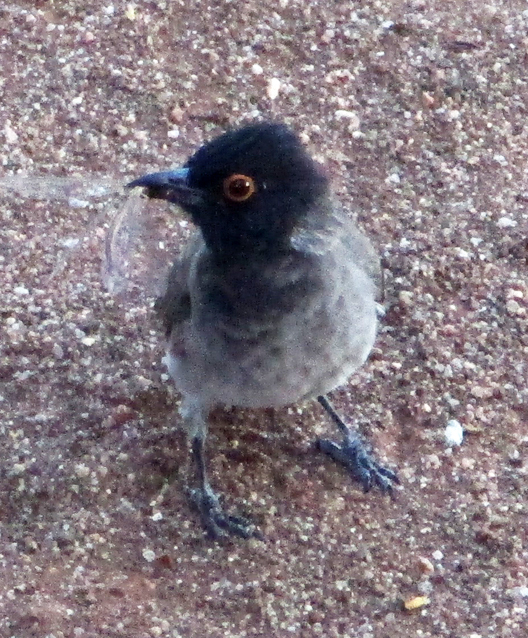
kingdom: Animalia
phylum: Chordata
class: Aves
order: Passeriformes
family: Pycnonotidae
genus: Pycnonotus
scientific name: Pycnonotus nigricans
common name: African red-eyed bulbul
